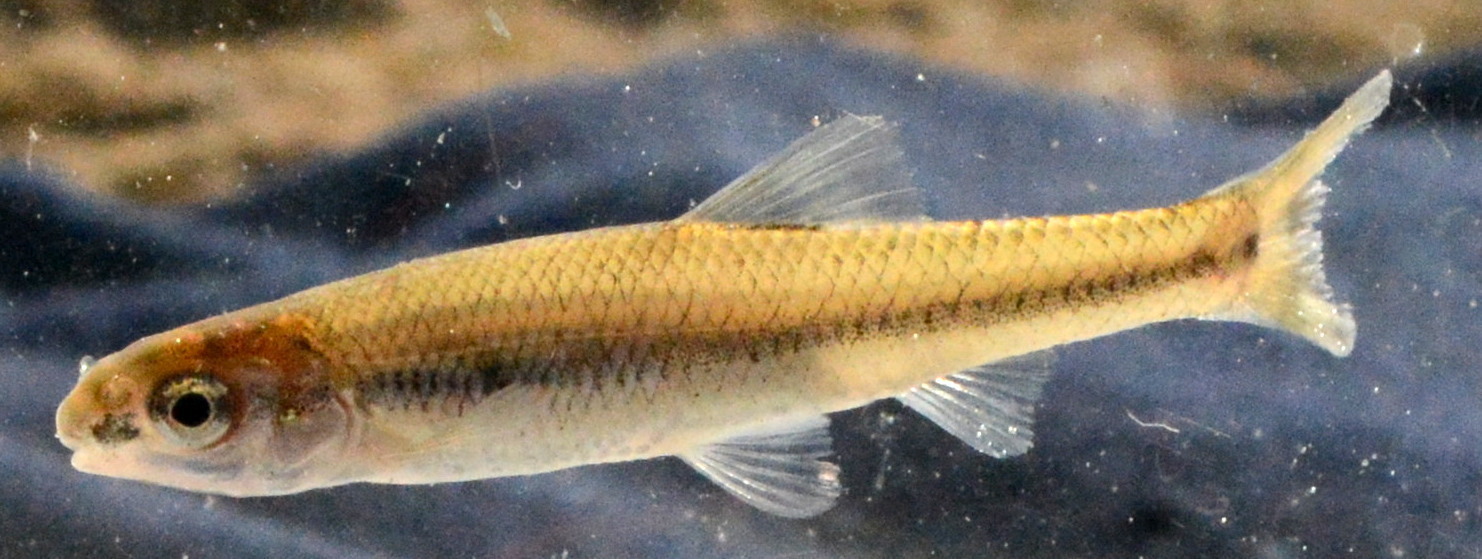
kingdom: Animalia
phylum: Chordata
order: Cypriniformes
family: Cyprinidae
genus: Pimephales
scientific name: Pimephales notatus
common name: Bluntnose minnow
